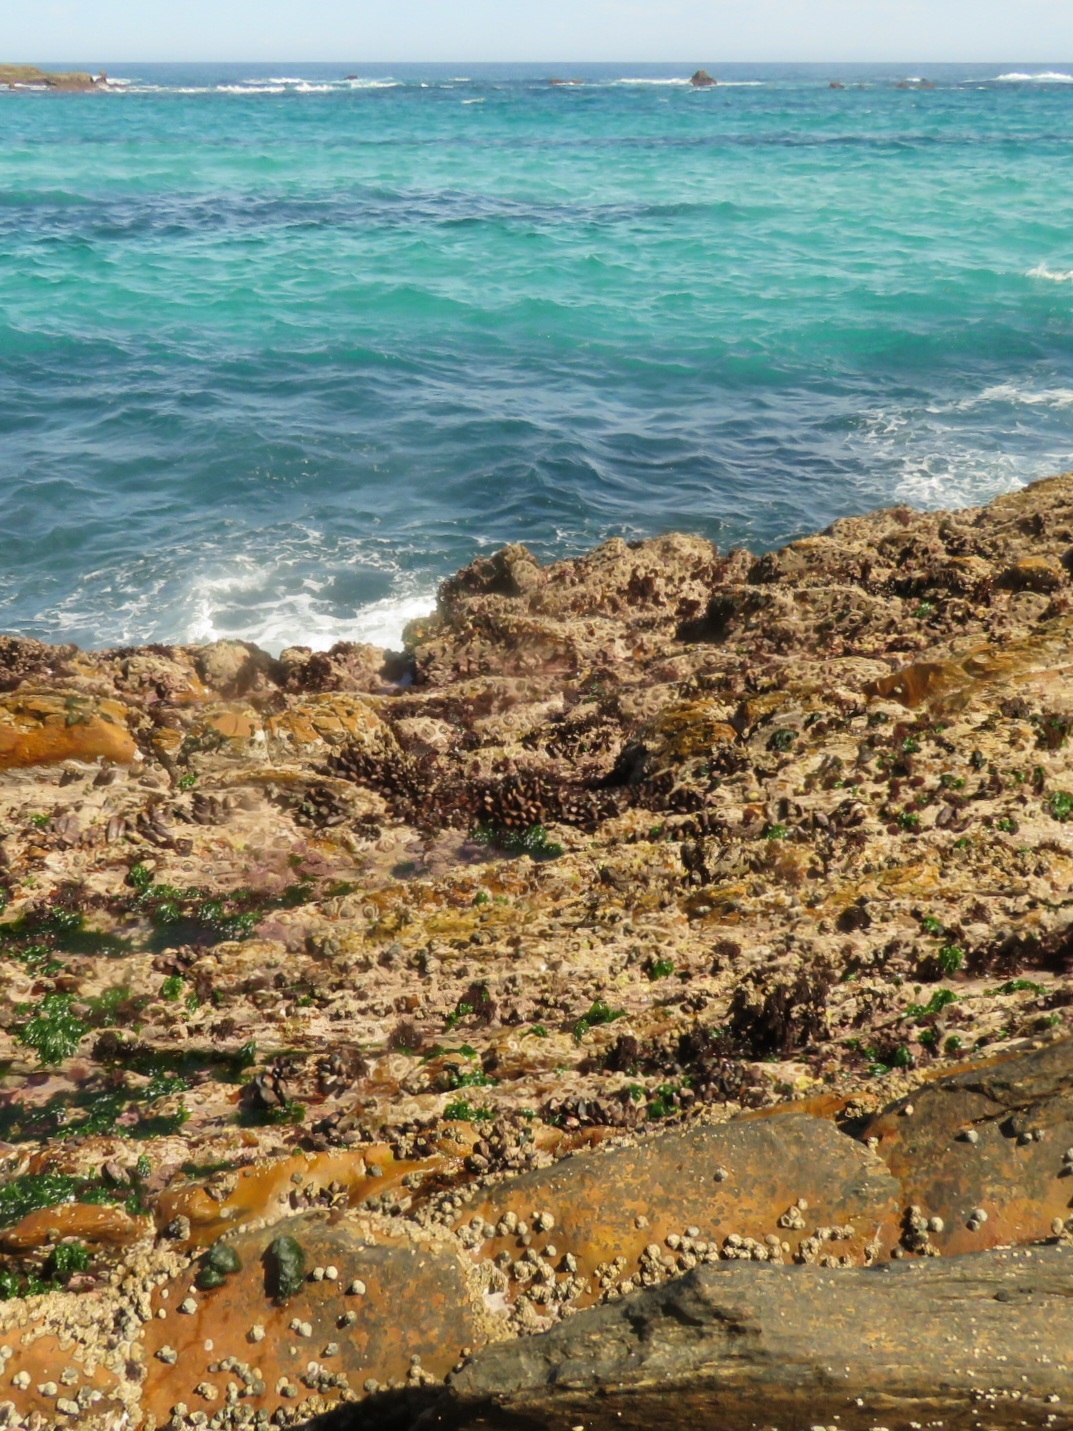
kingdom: Animalia
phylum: Mollusca
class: Bivalvia
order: Mytilida
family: Mytilidae
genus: Perna
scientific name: Perna perna
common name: Mexilhao mussel
